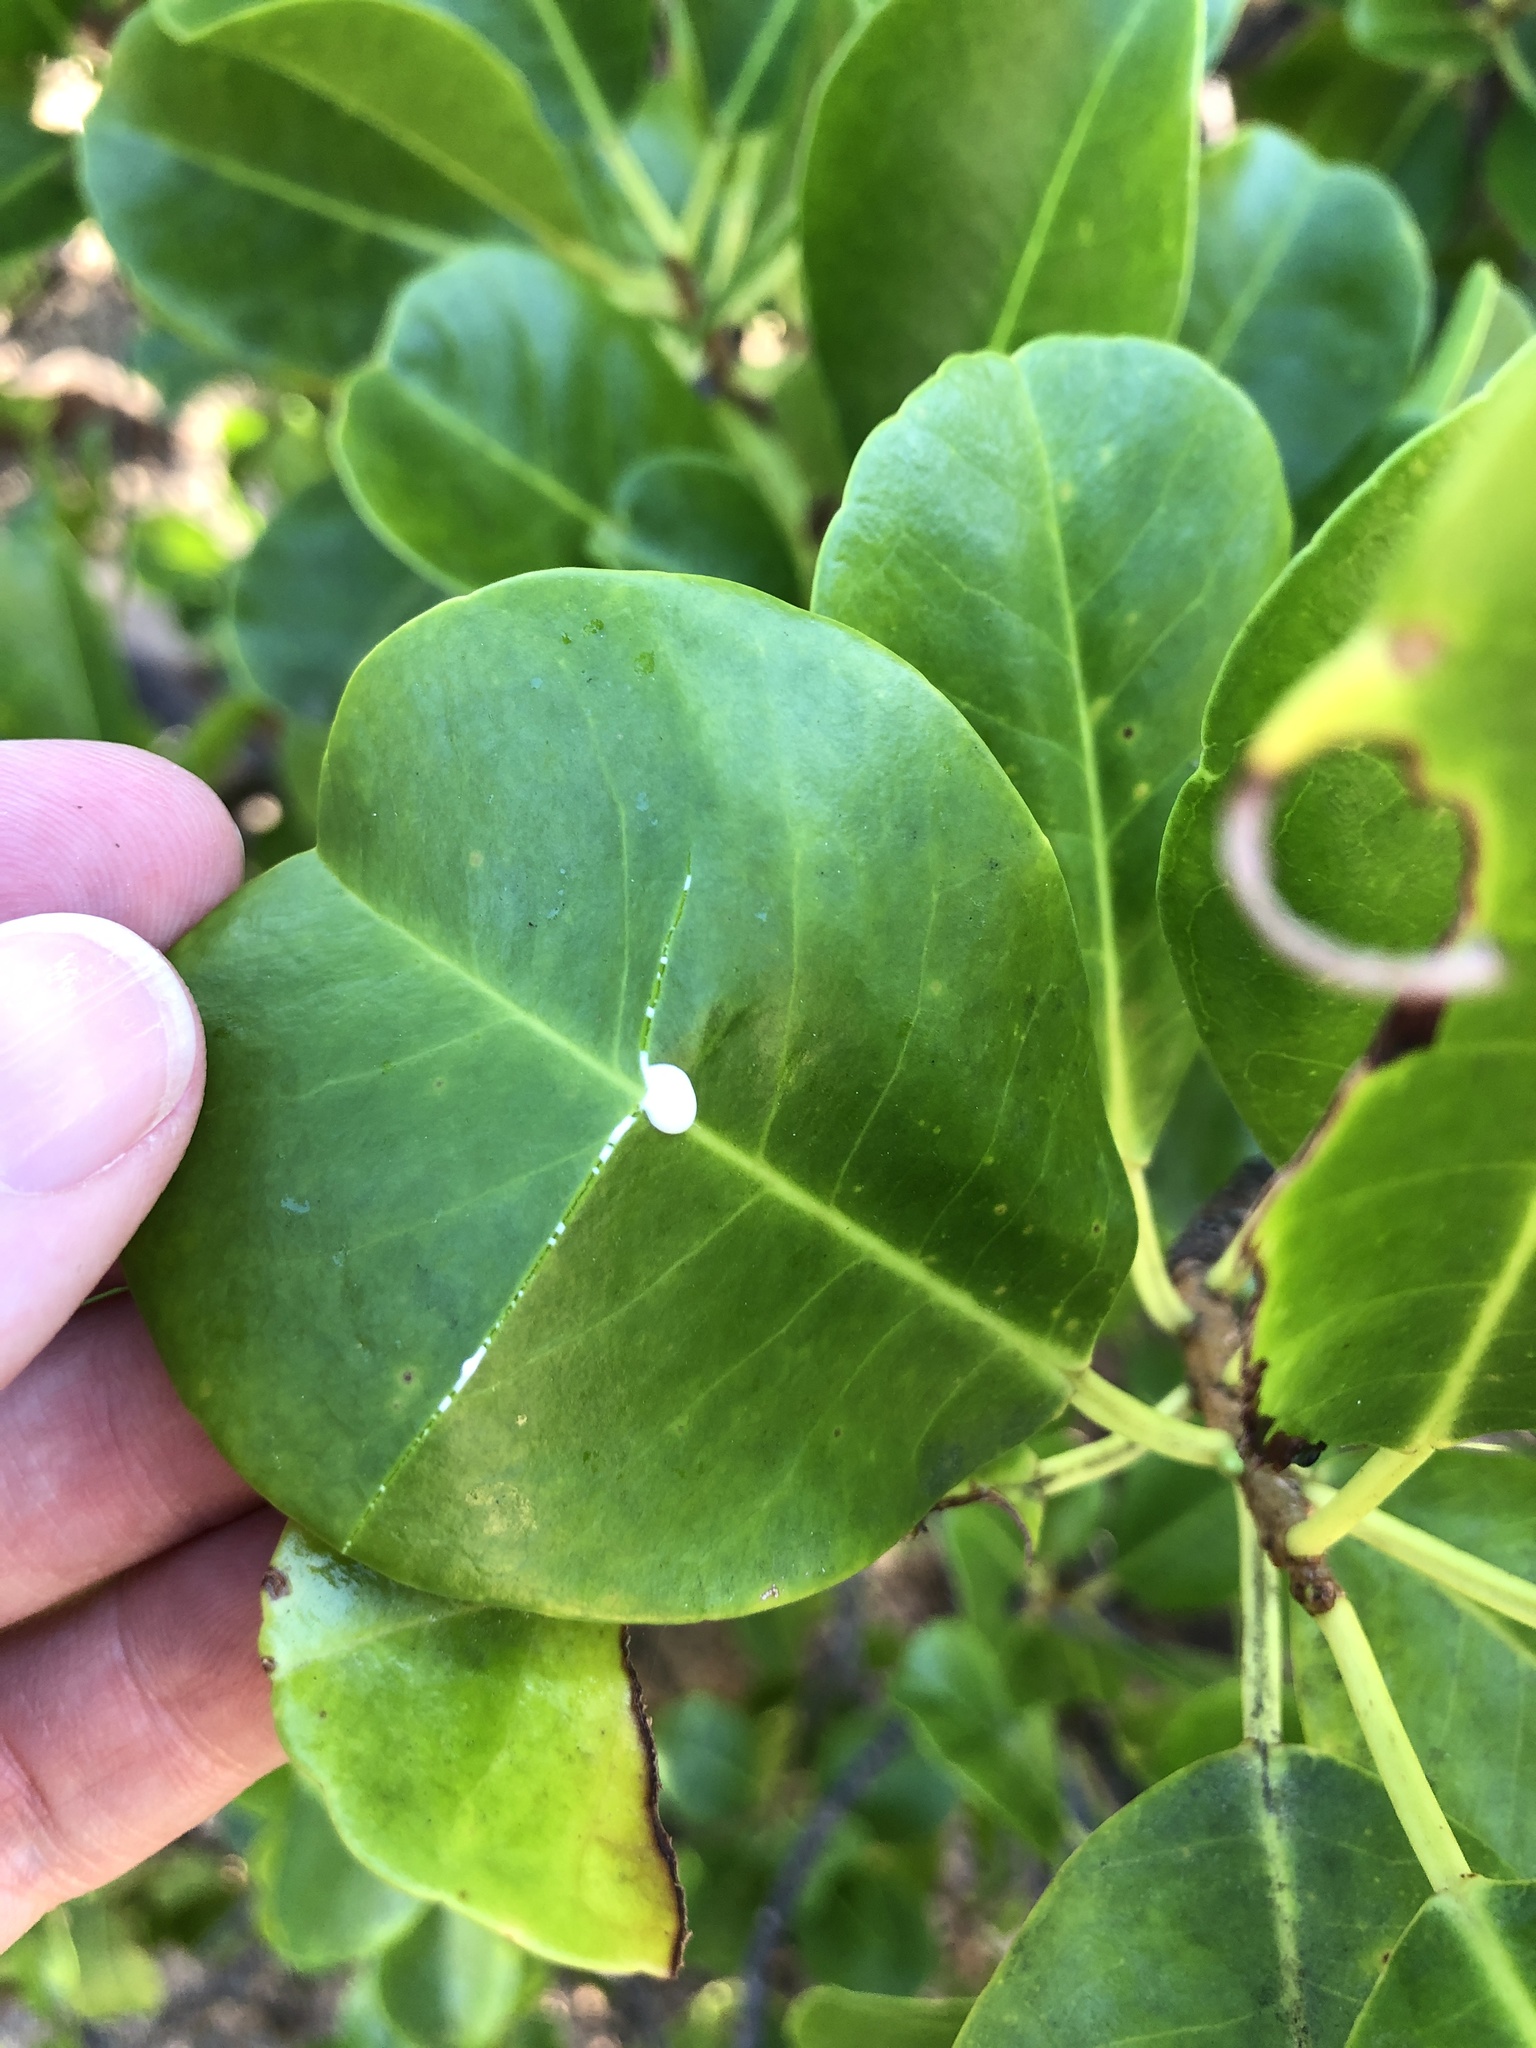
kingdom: Plantae
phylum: Tracheophyta
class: Magnoliopsida
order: Malpighiales
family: Euphorbiaceae
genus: Excoecaria
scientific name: Excoecaria agallocha
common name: River poisontree
